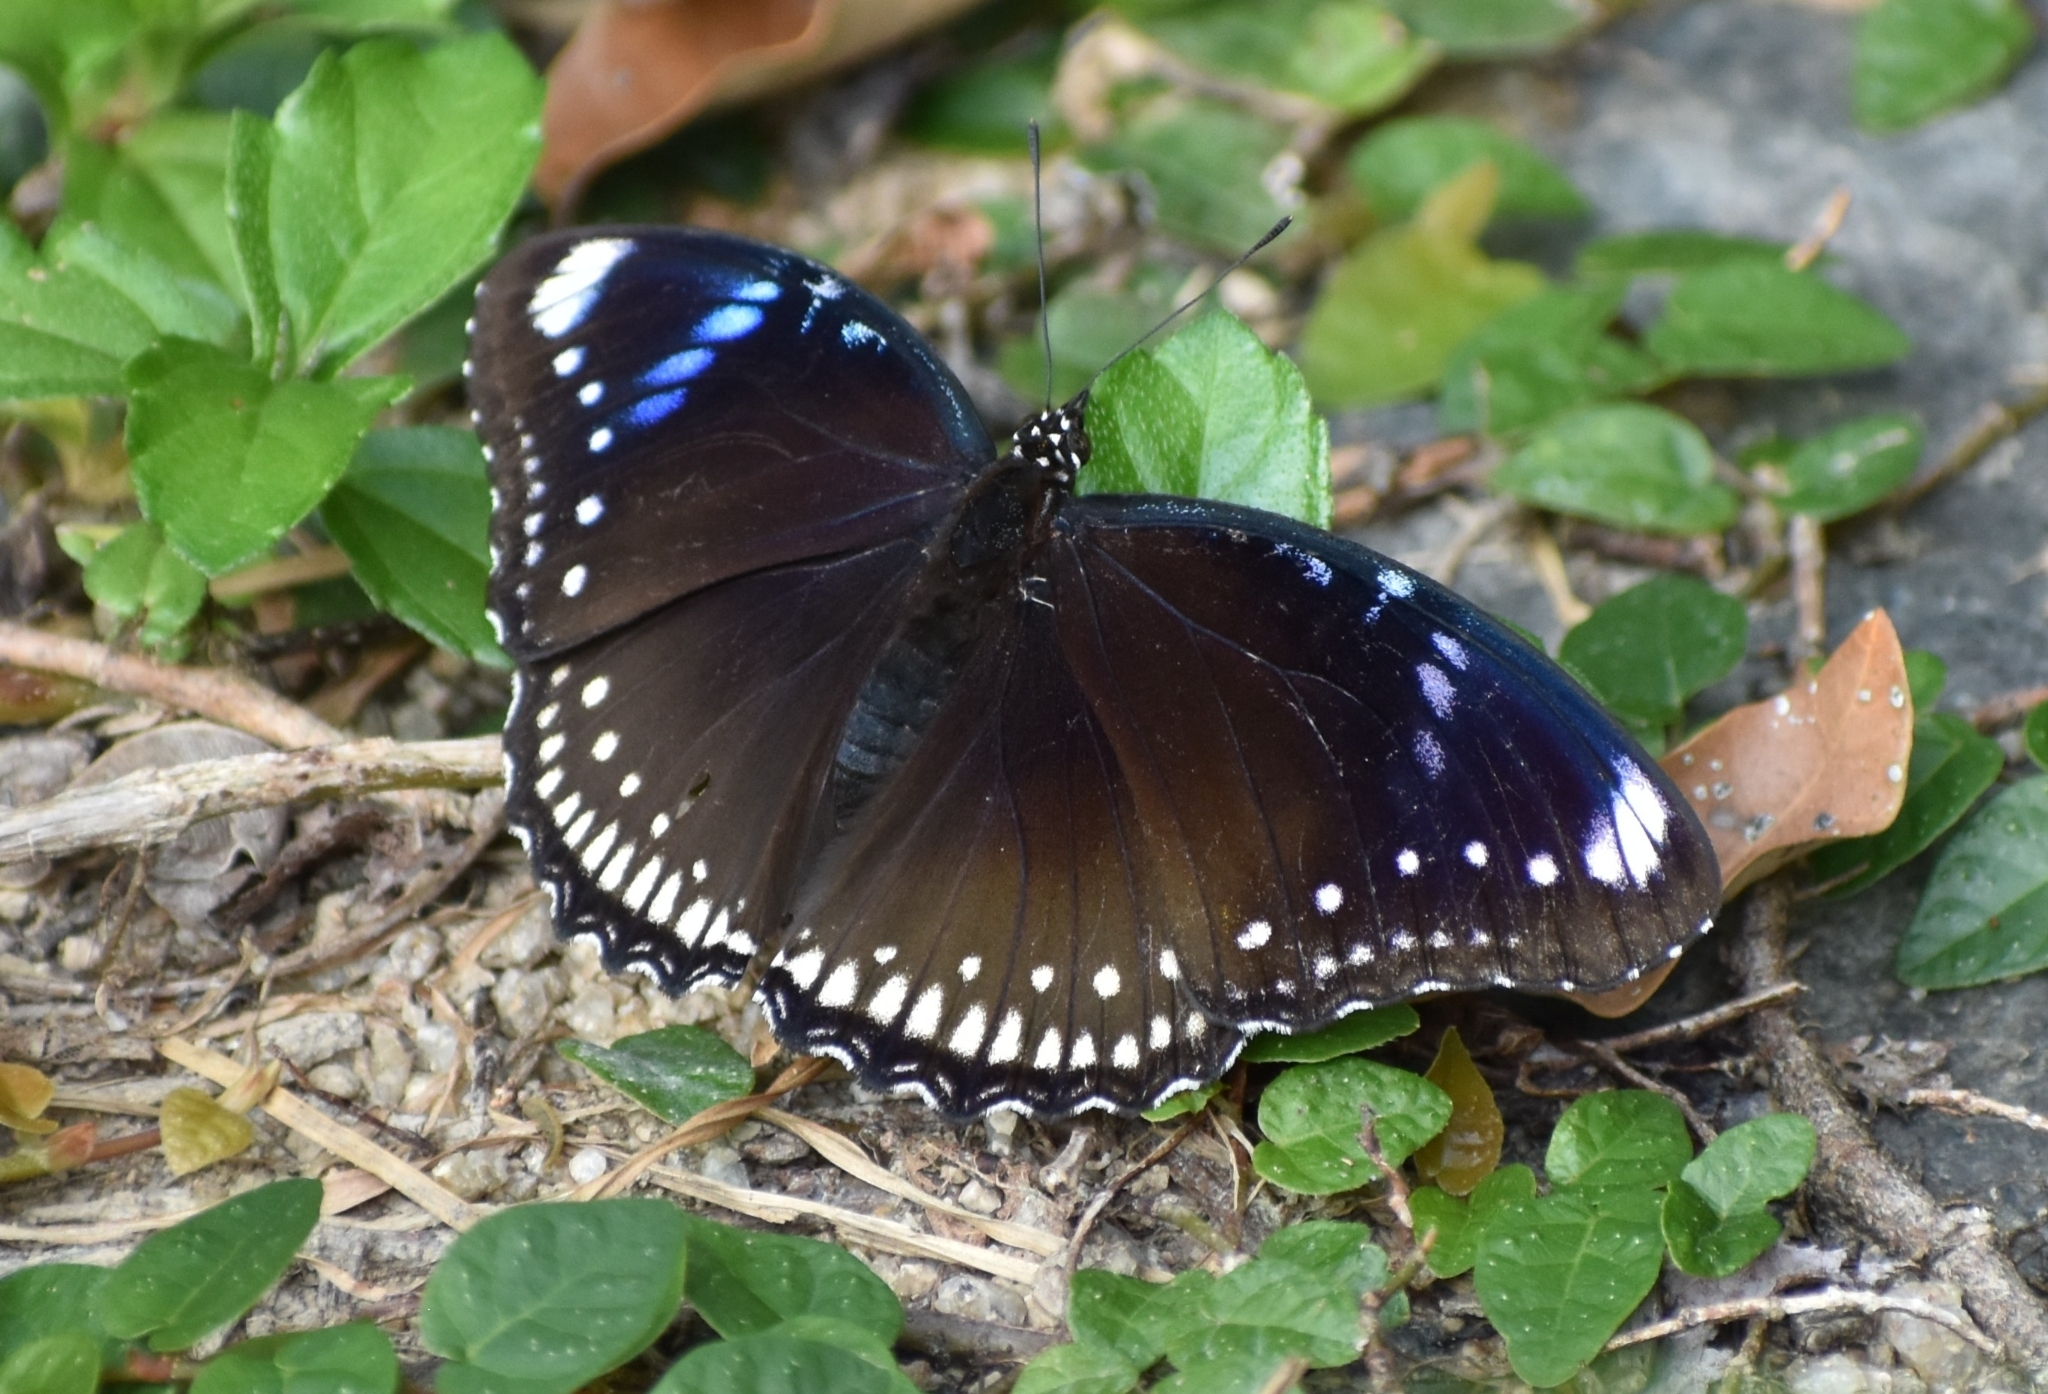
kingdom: Animalia
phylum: Arthropoda
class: Insecta
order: Lepidoptera
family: Nymphalidae
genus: Hypolimnas
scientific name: Hypolimnas bolina
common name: Great eggfly
